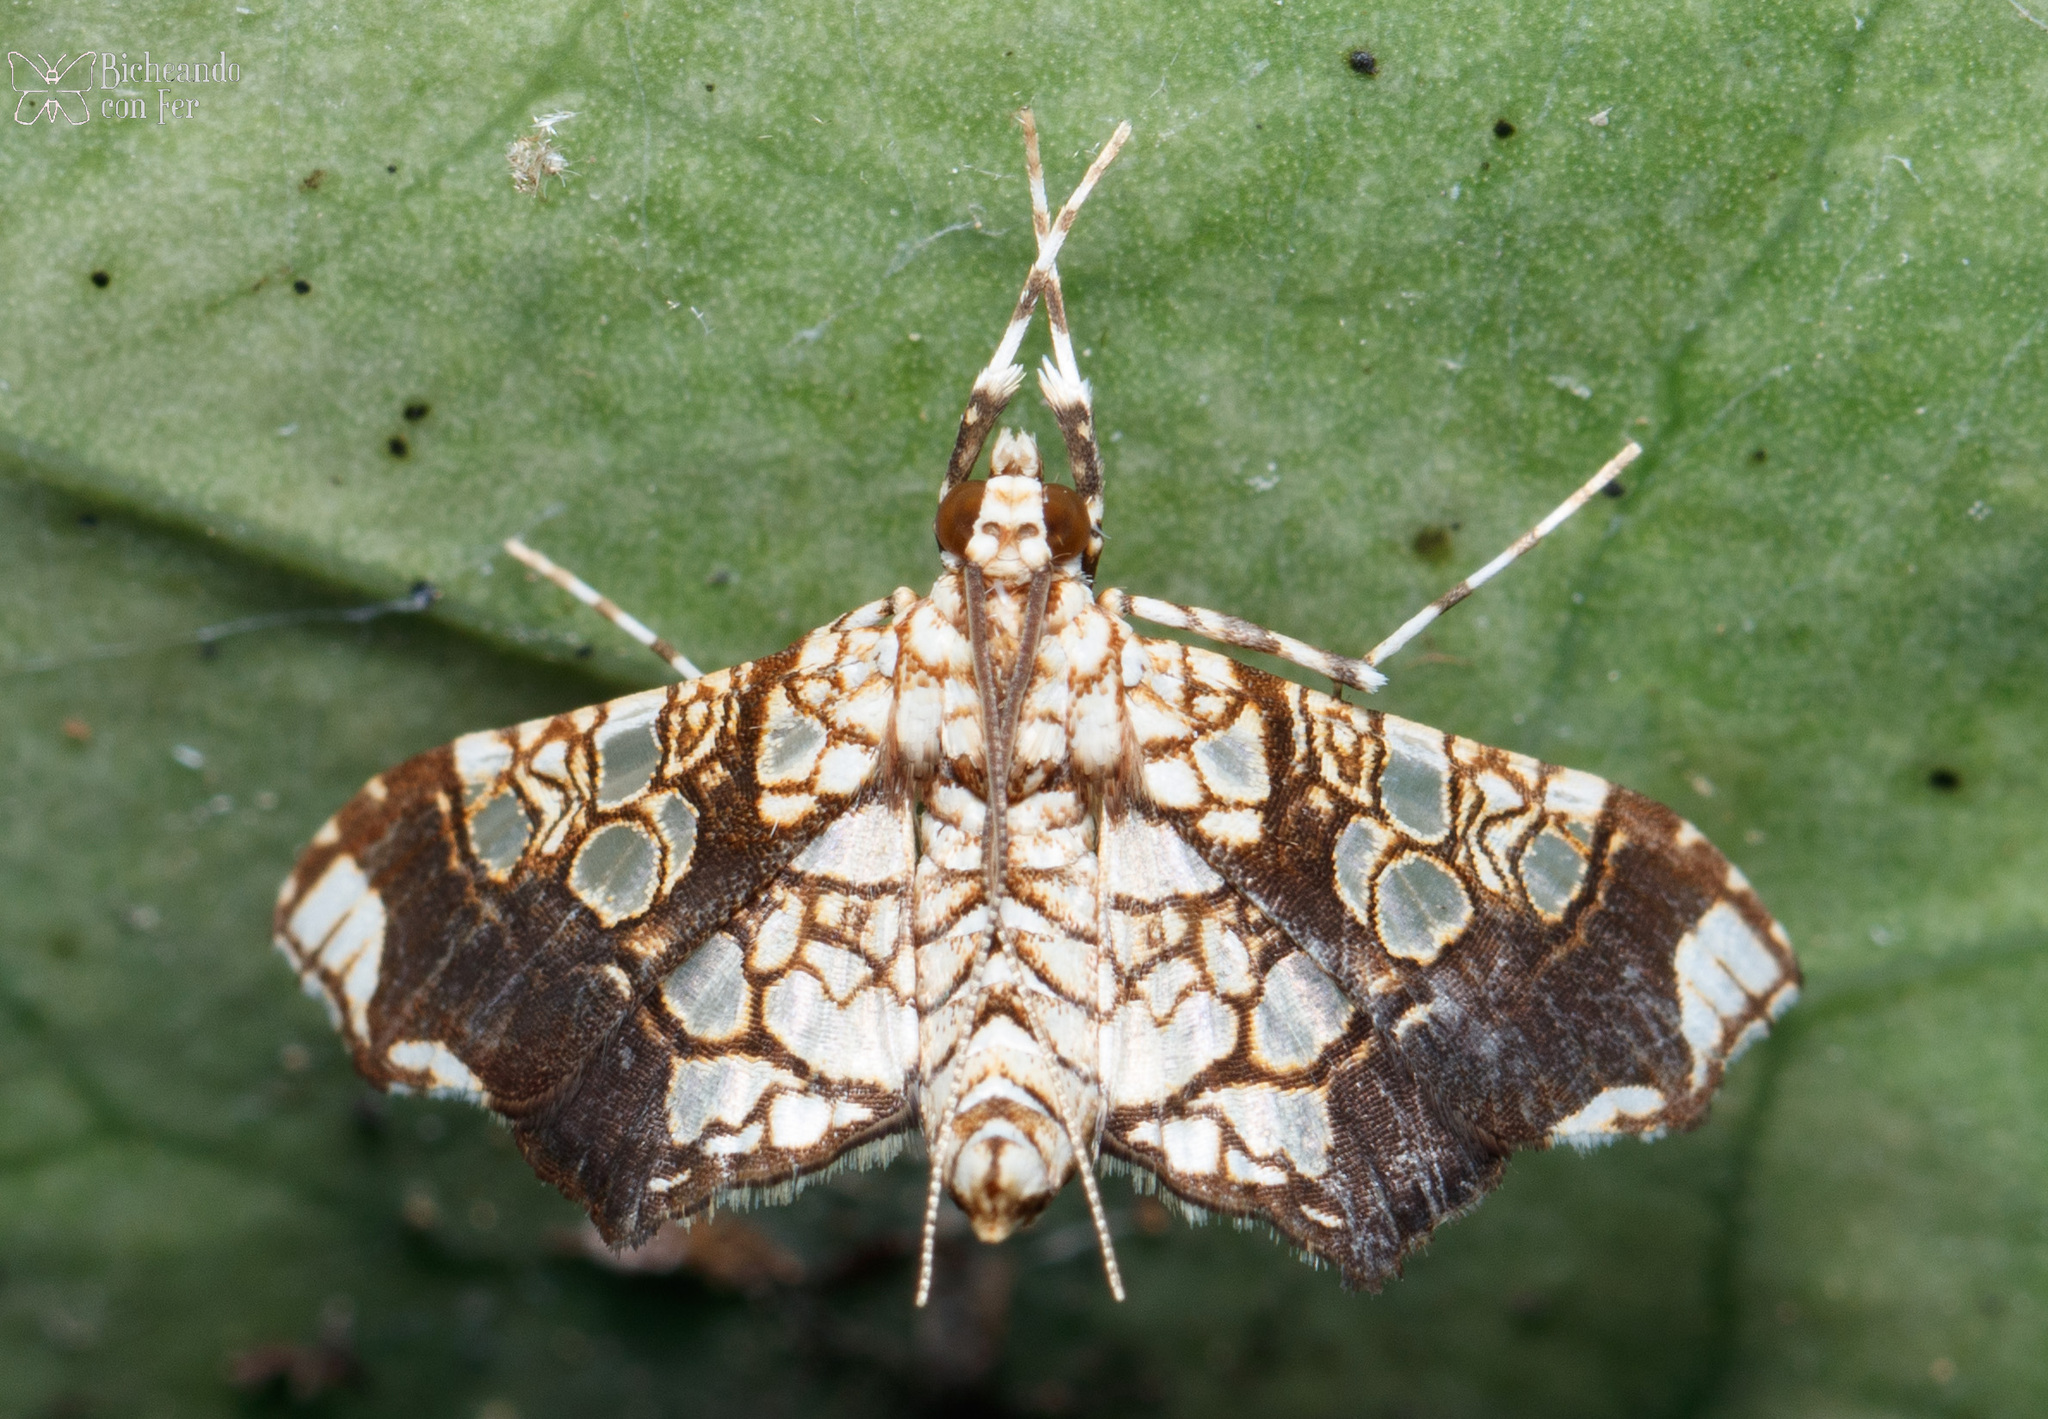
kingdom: Animalia
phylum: Arthropoda
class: Insecta
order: Lepidoptera
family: Crambidae
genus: Sisyracera
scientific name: Sisyracera subulalis
